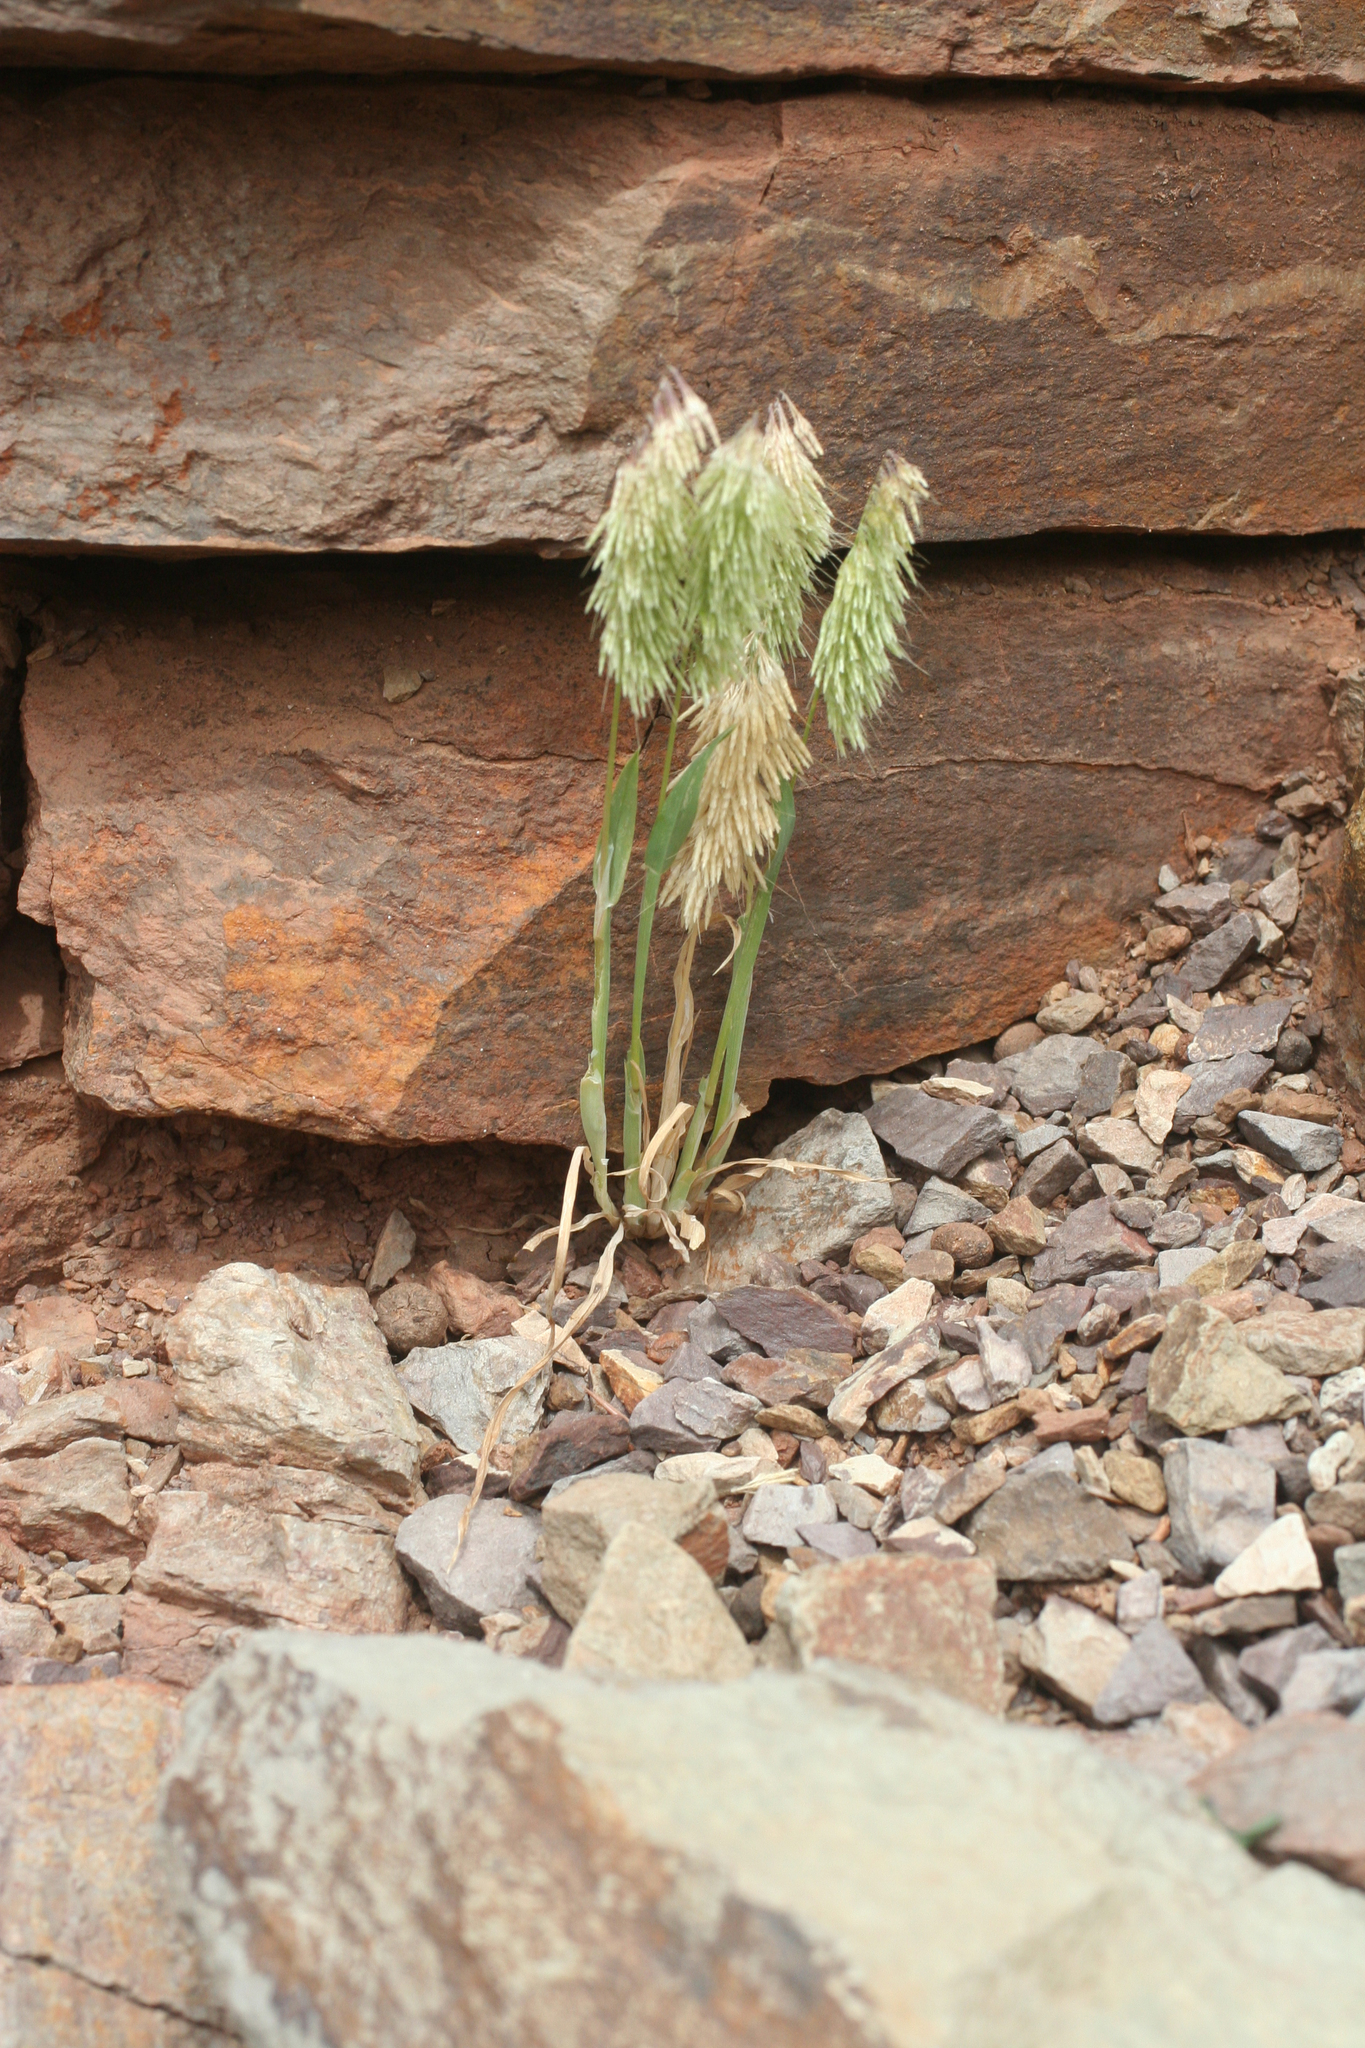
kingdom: Plantae
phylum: Tracheophyta
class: Liliopsida
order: Poales
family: Poaceae
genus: Lamarckia
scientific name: Lamarckia aurea
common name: Golden dog's-tail
